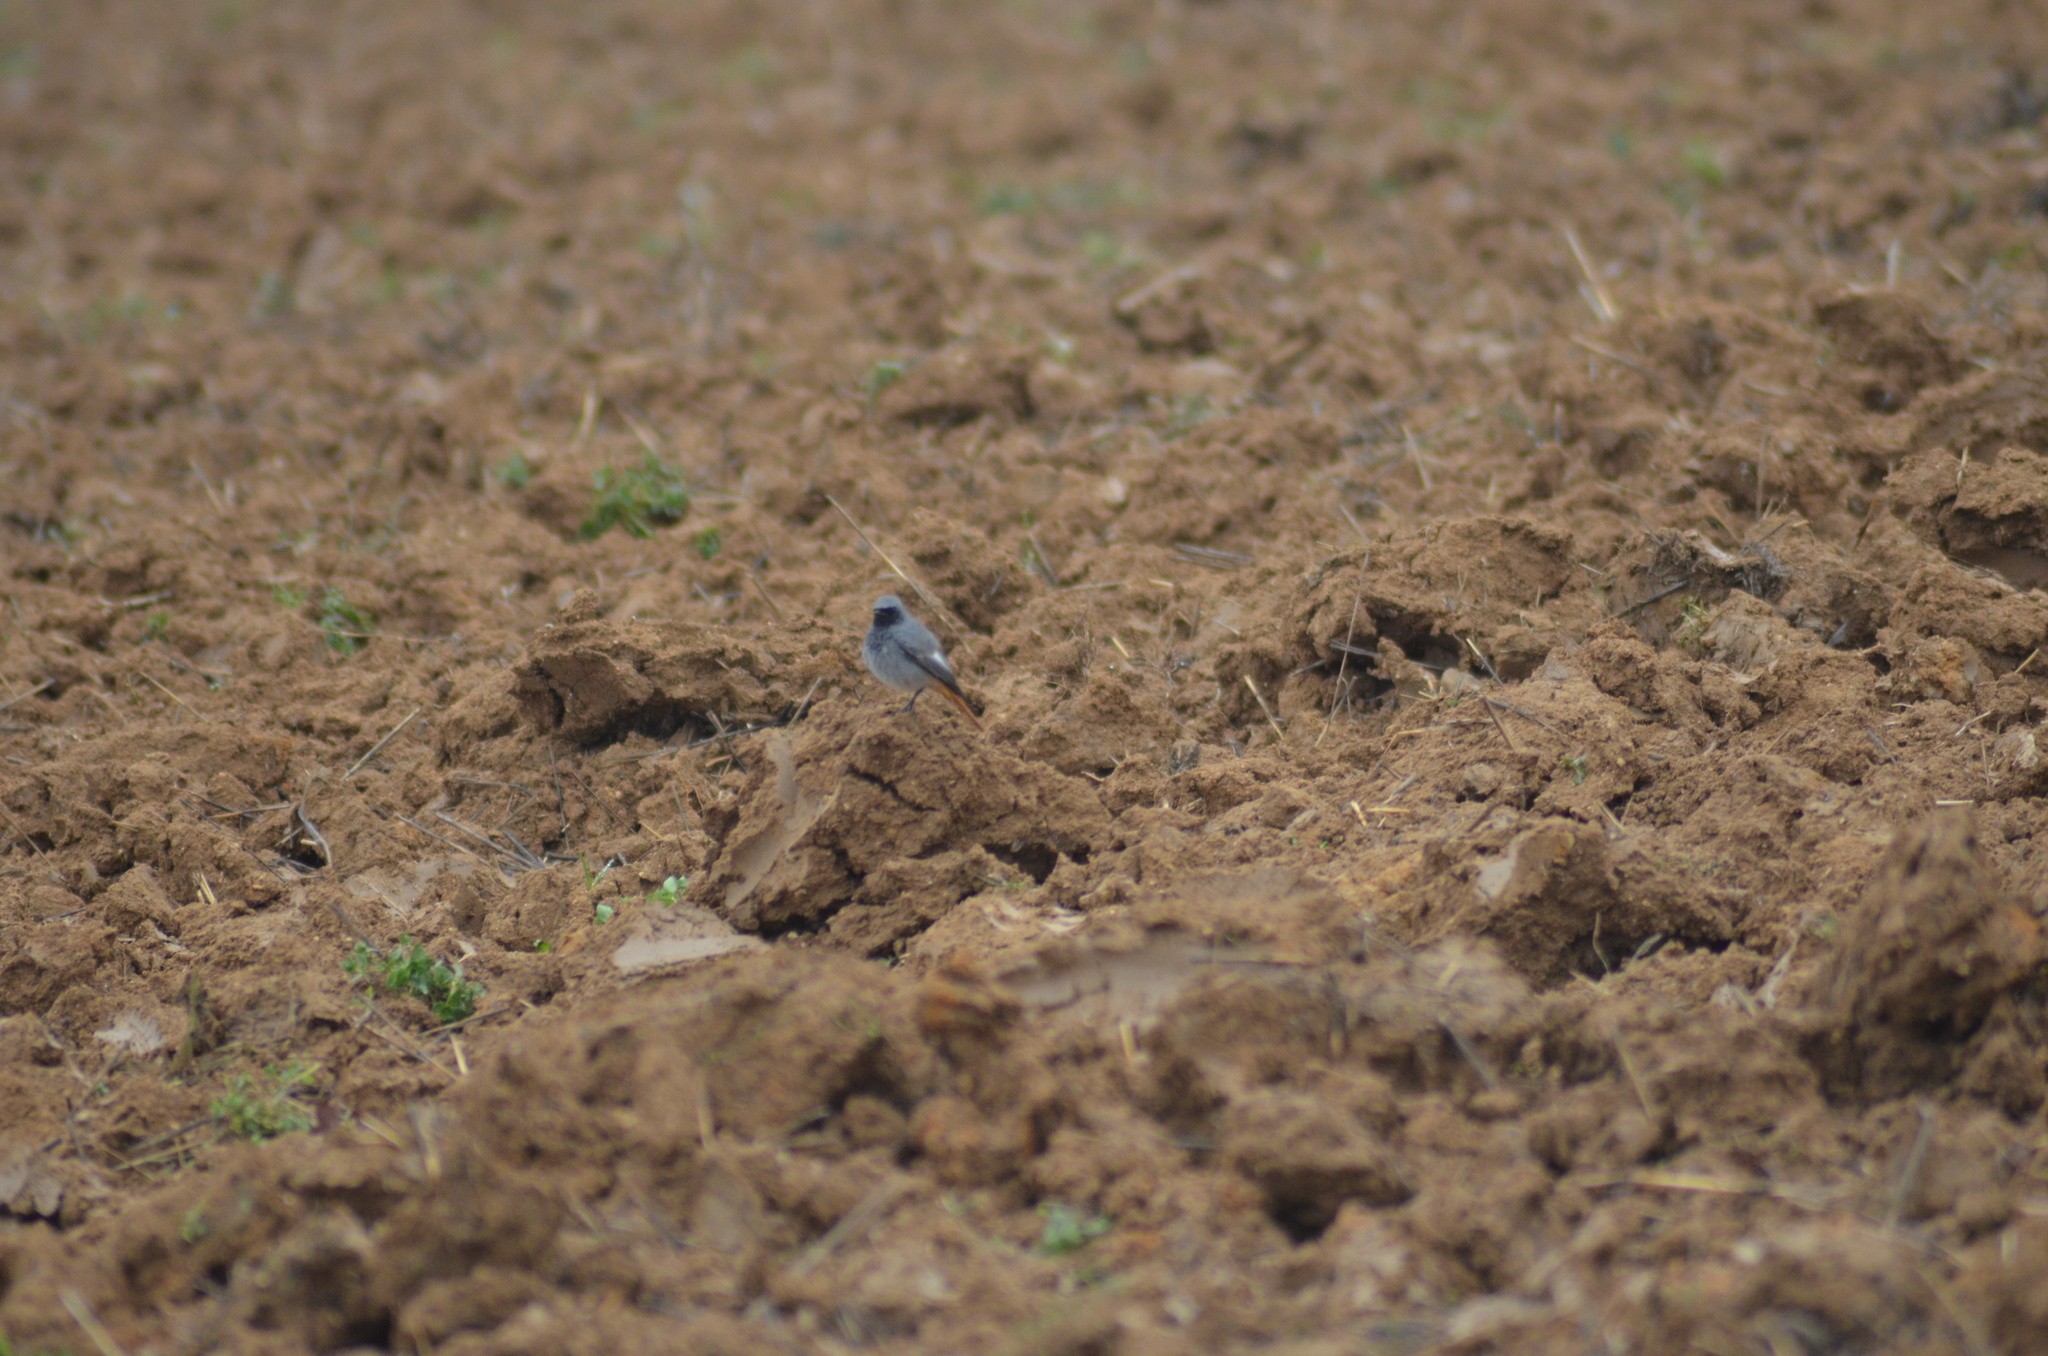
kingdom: Animalia
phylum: Chordata
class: Aves
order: Passeriformes
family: Muscicapidae
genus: Phoenicurus
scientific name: Phoenicurus ochruros
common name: Black redstart
